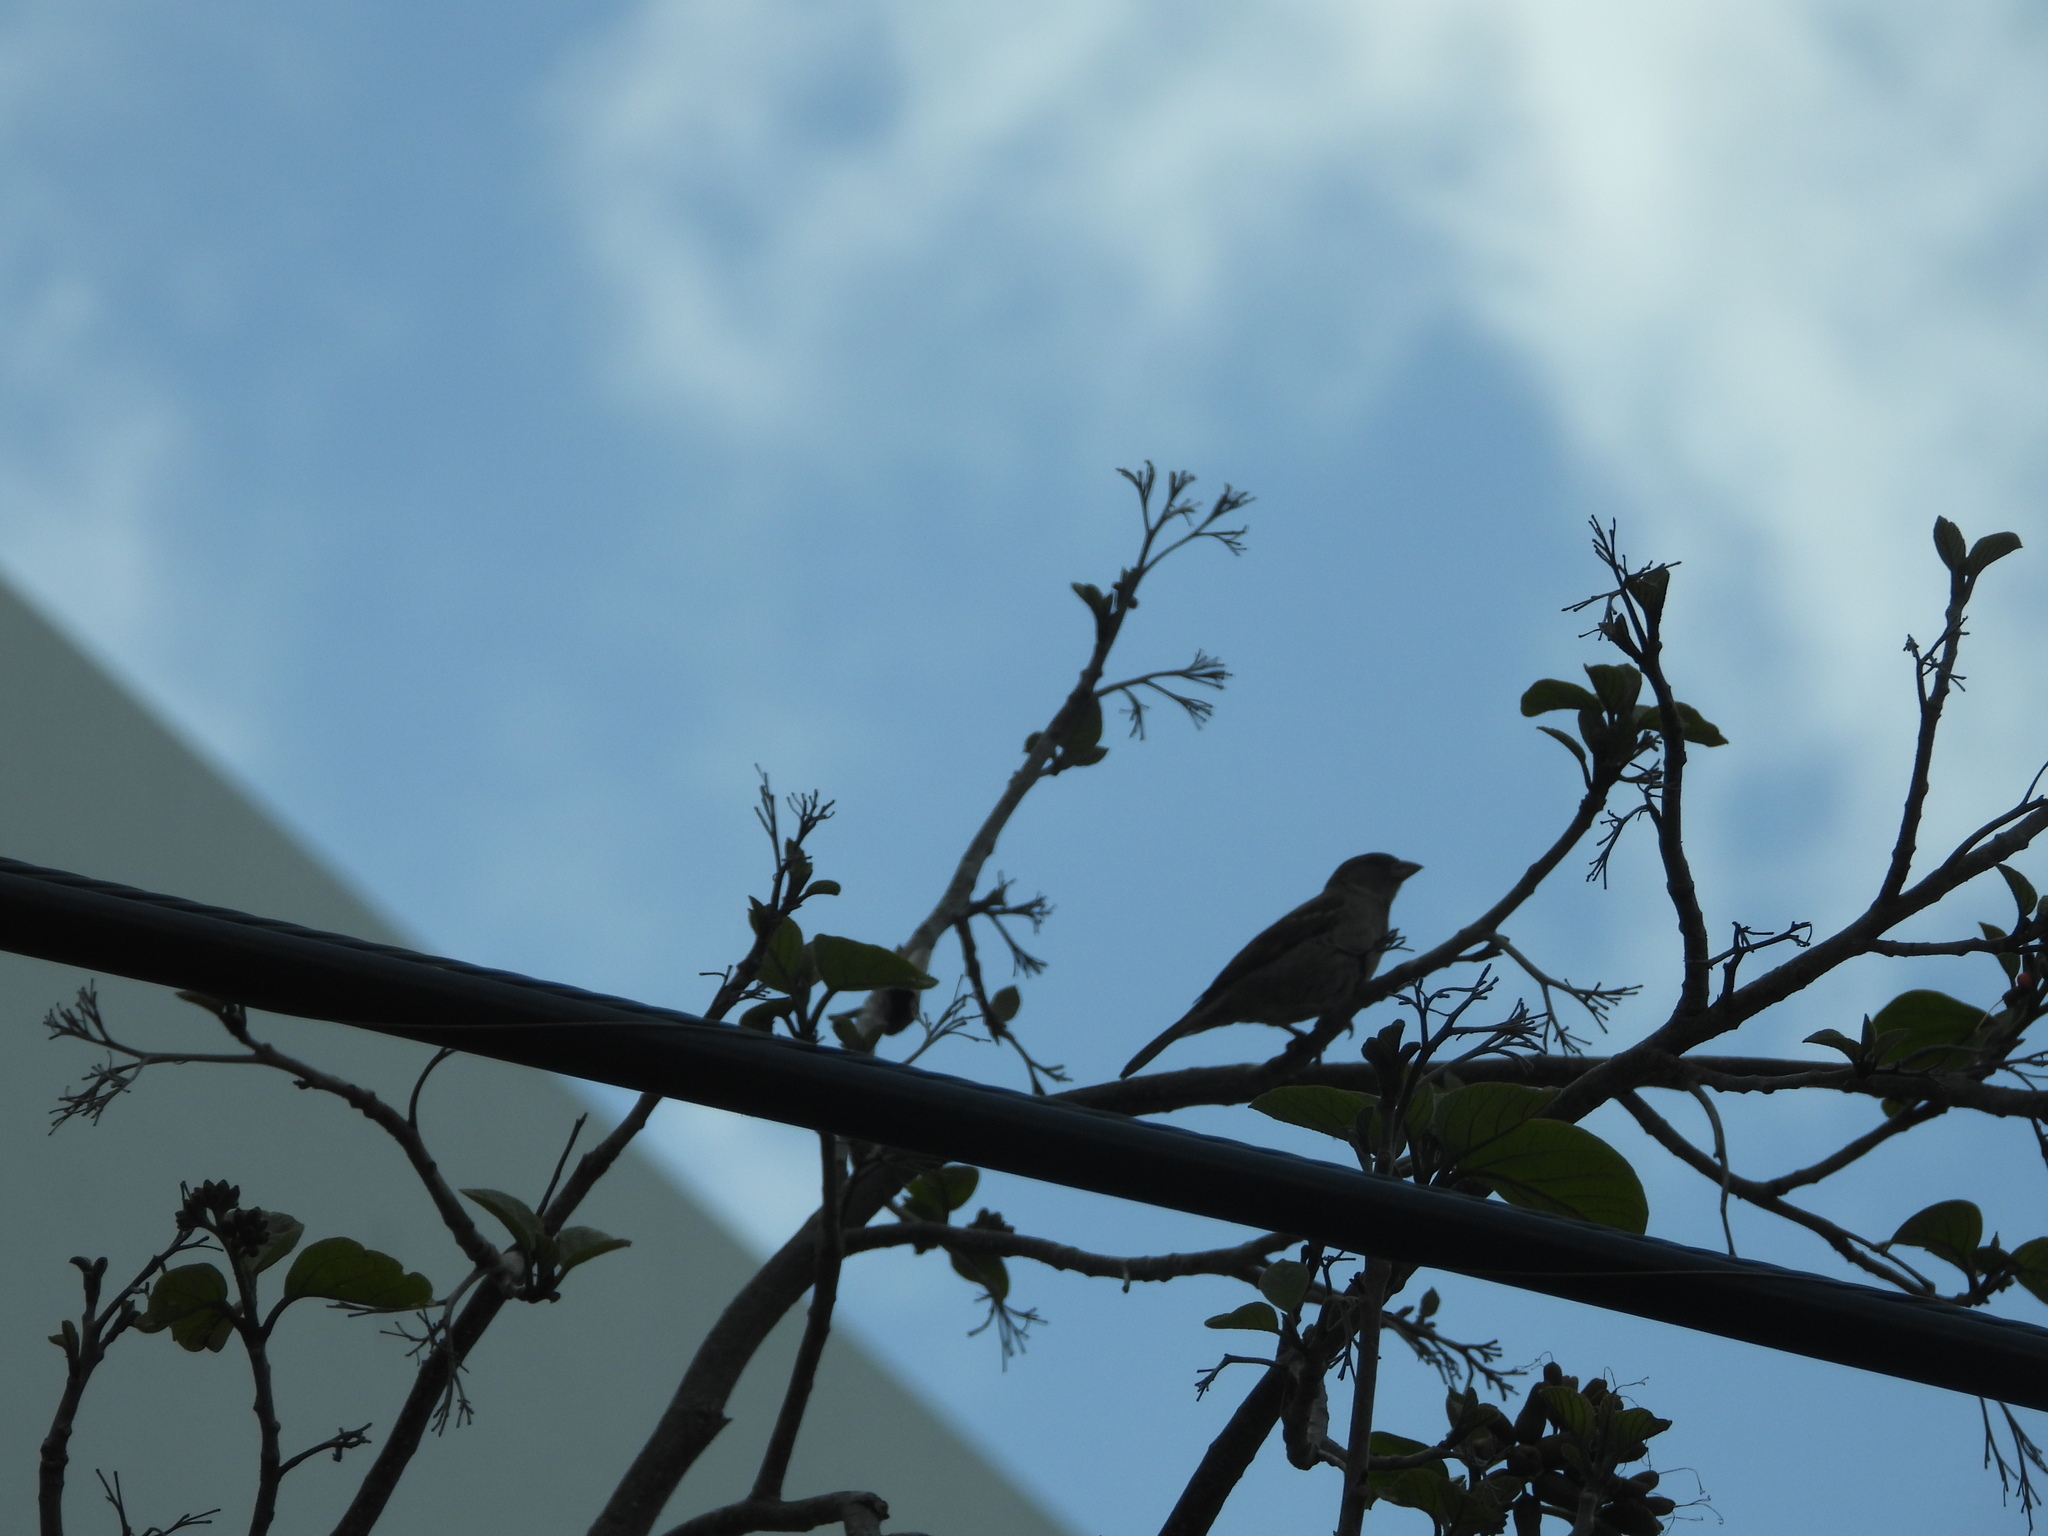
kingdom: Animalia
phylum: Chordata
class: Aves
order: Passeriformes
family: Passeridae
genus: Passer
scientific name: Passer domesticus
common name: House sparrow
